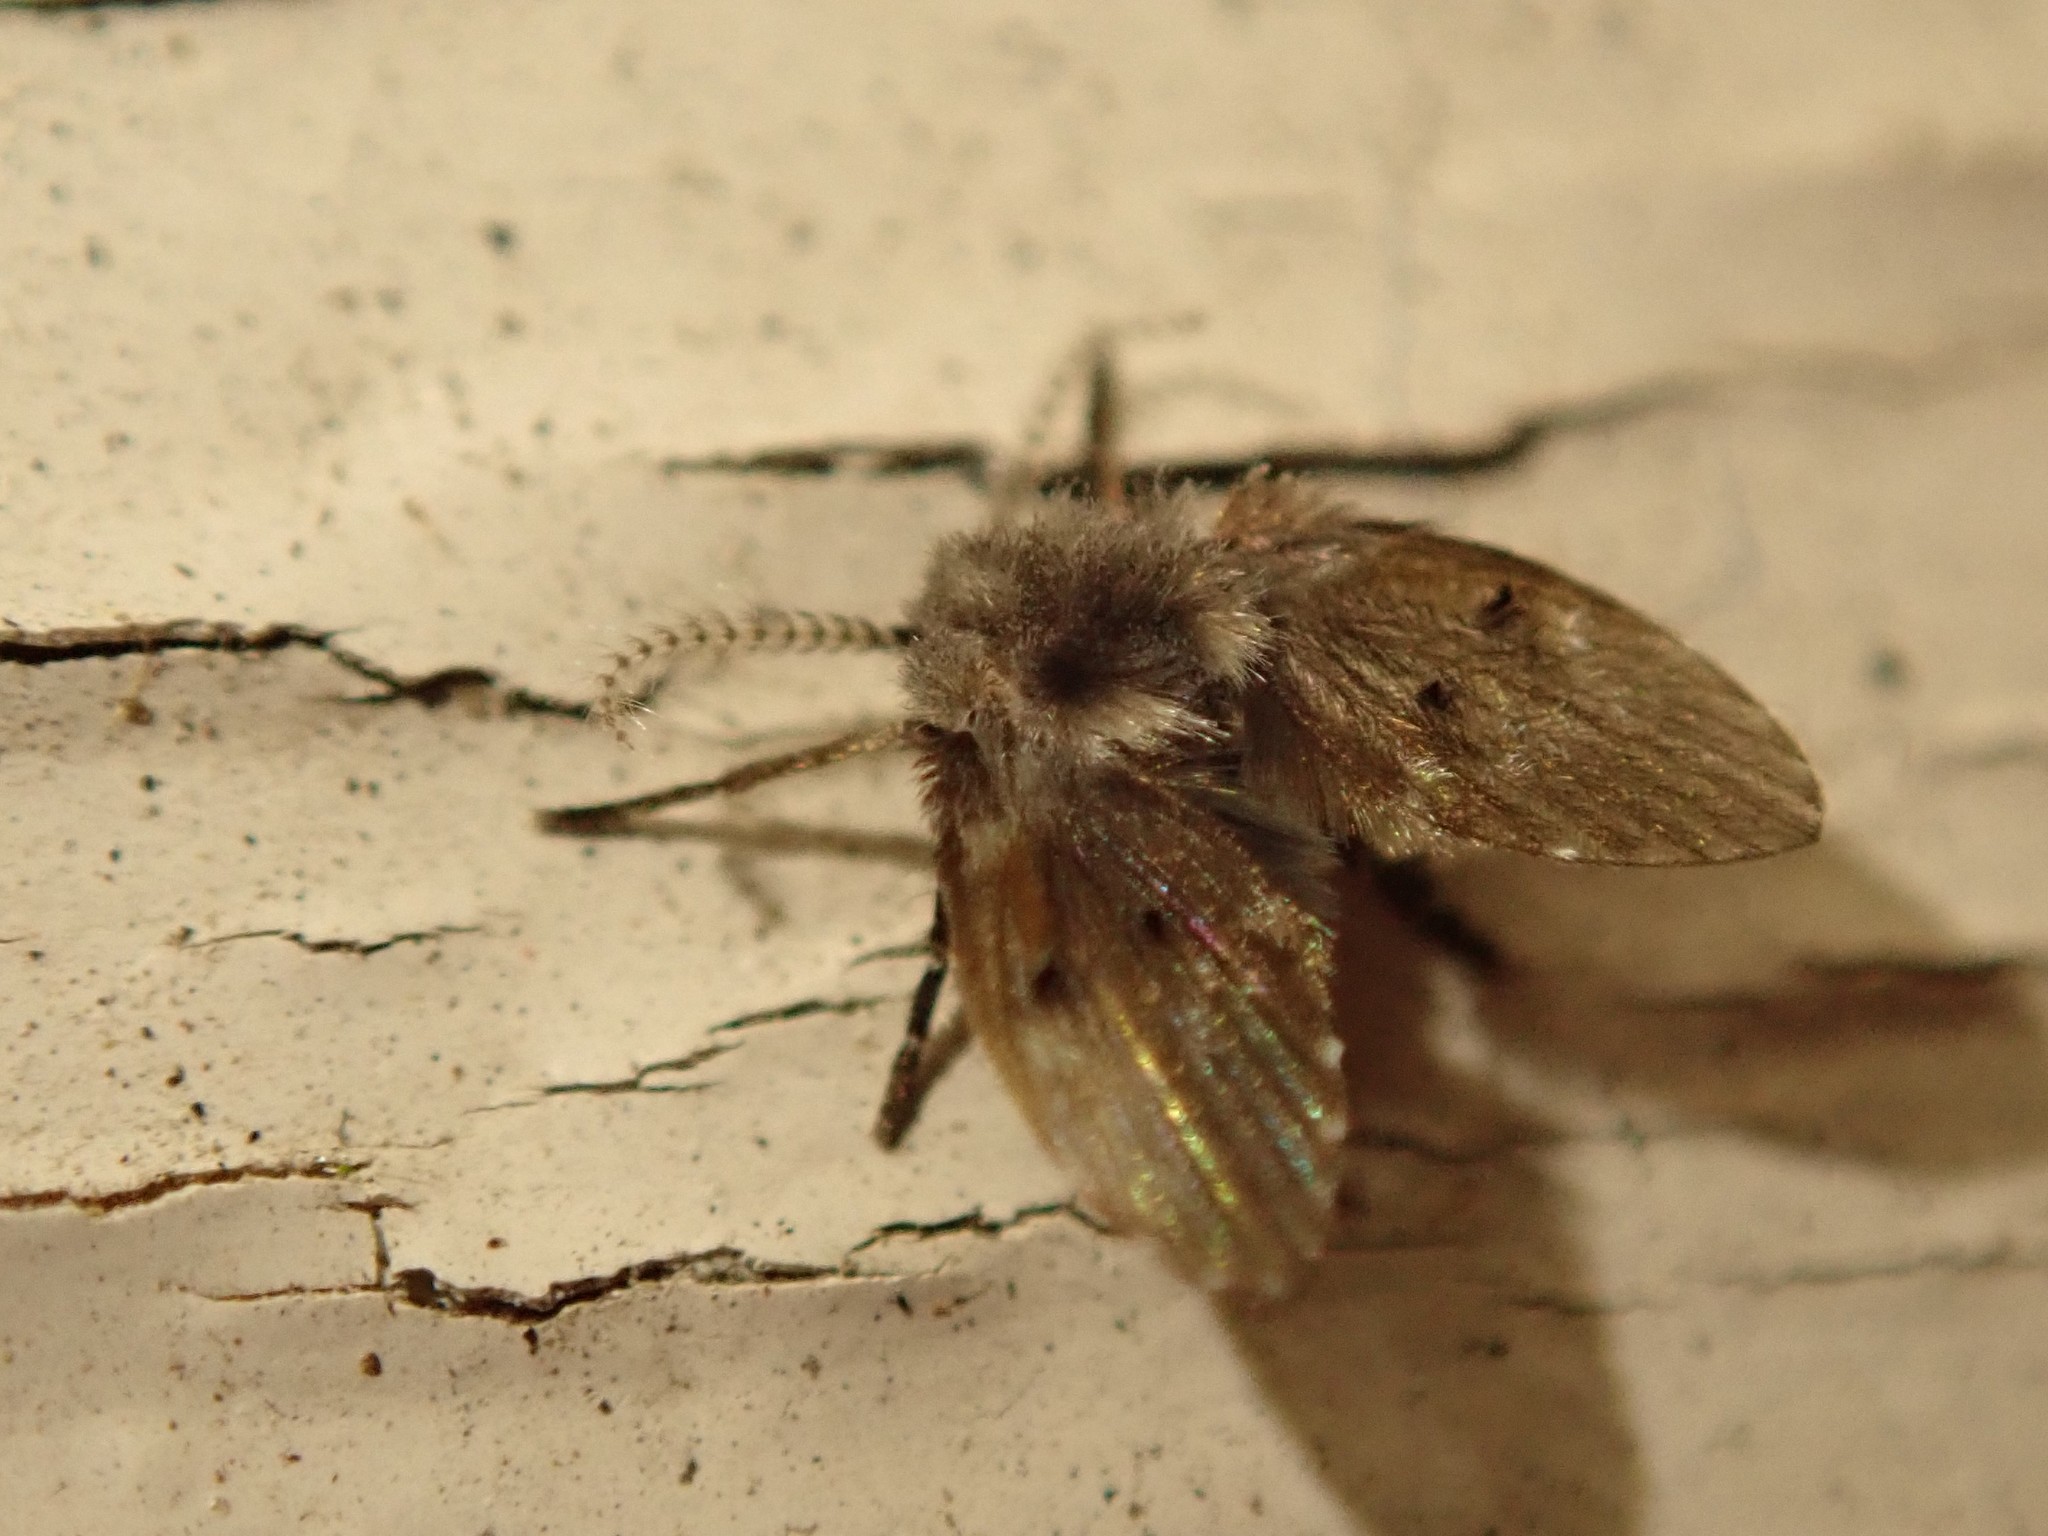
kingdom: Animalia
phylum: Arthropoda
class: Insecta
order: Diptera
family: Psychodidae
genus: Clogmia
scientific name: Clogmia albipunctatus
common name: White-spotted moth fly
